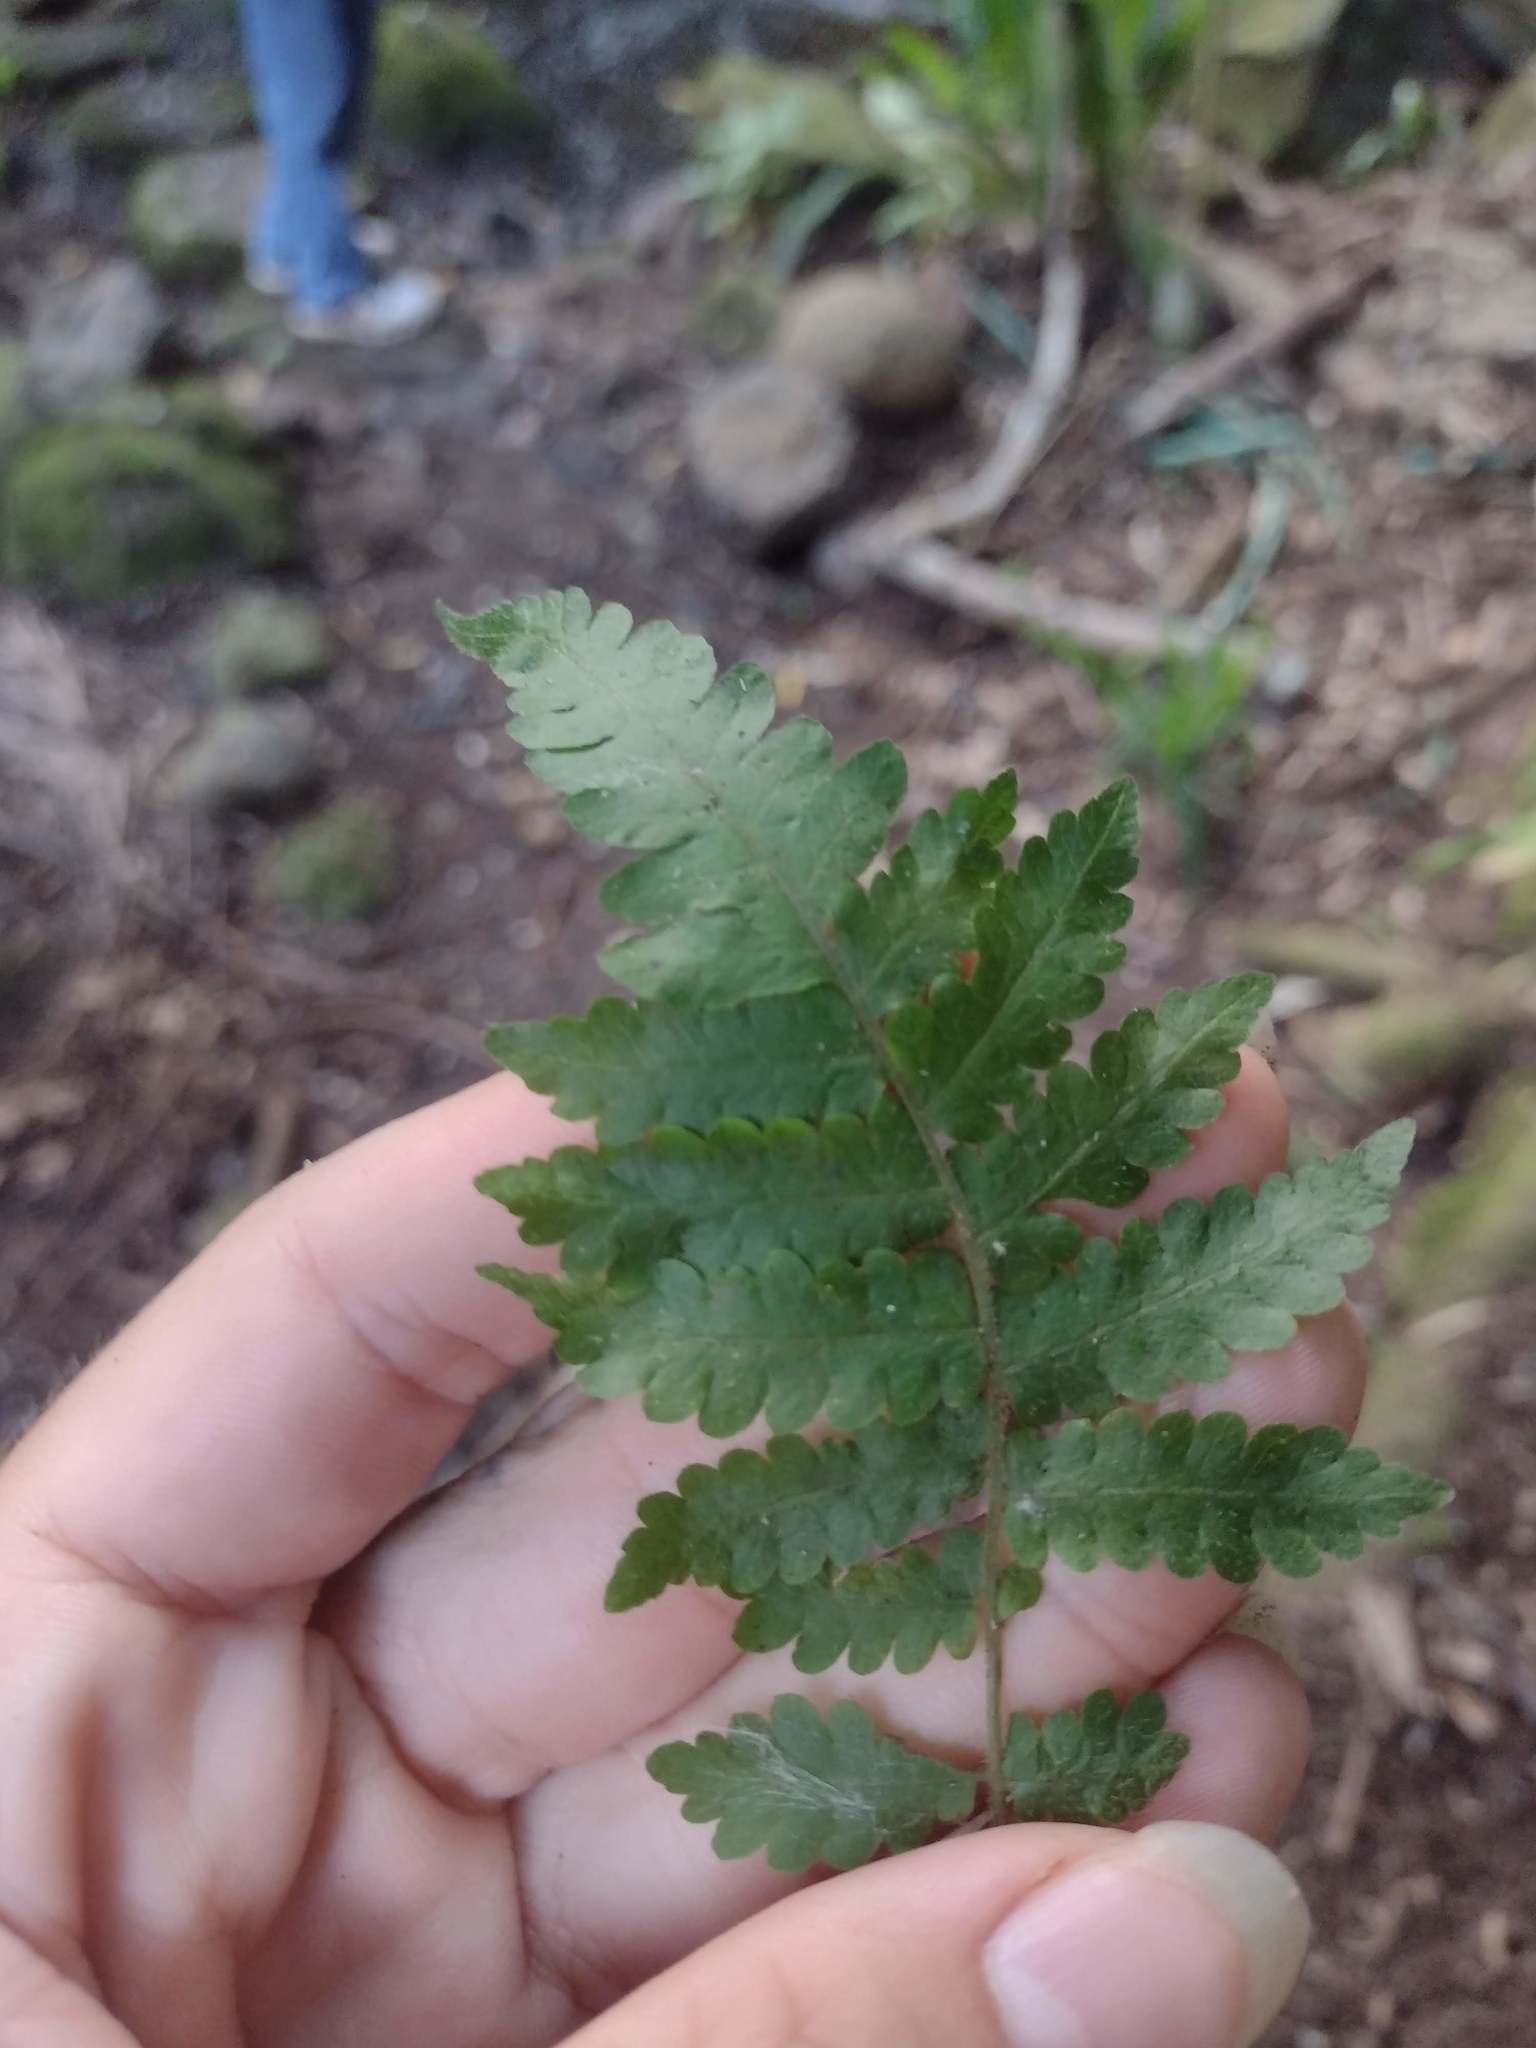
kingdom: Plantae
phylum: Tracheophyta
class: Polypodiopsida
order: Polypodiales
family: Athyriaceae
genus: Deparia
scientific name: Deparia petersenii
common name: Japanese false spleenwort
